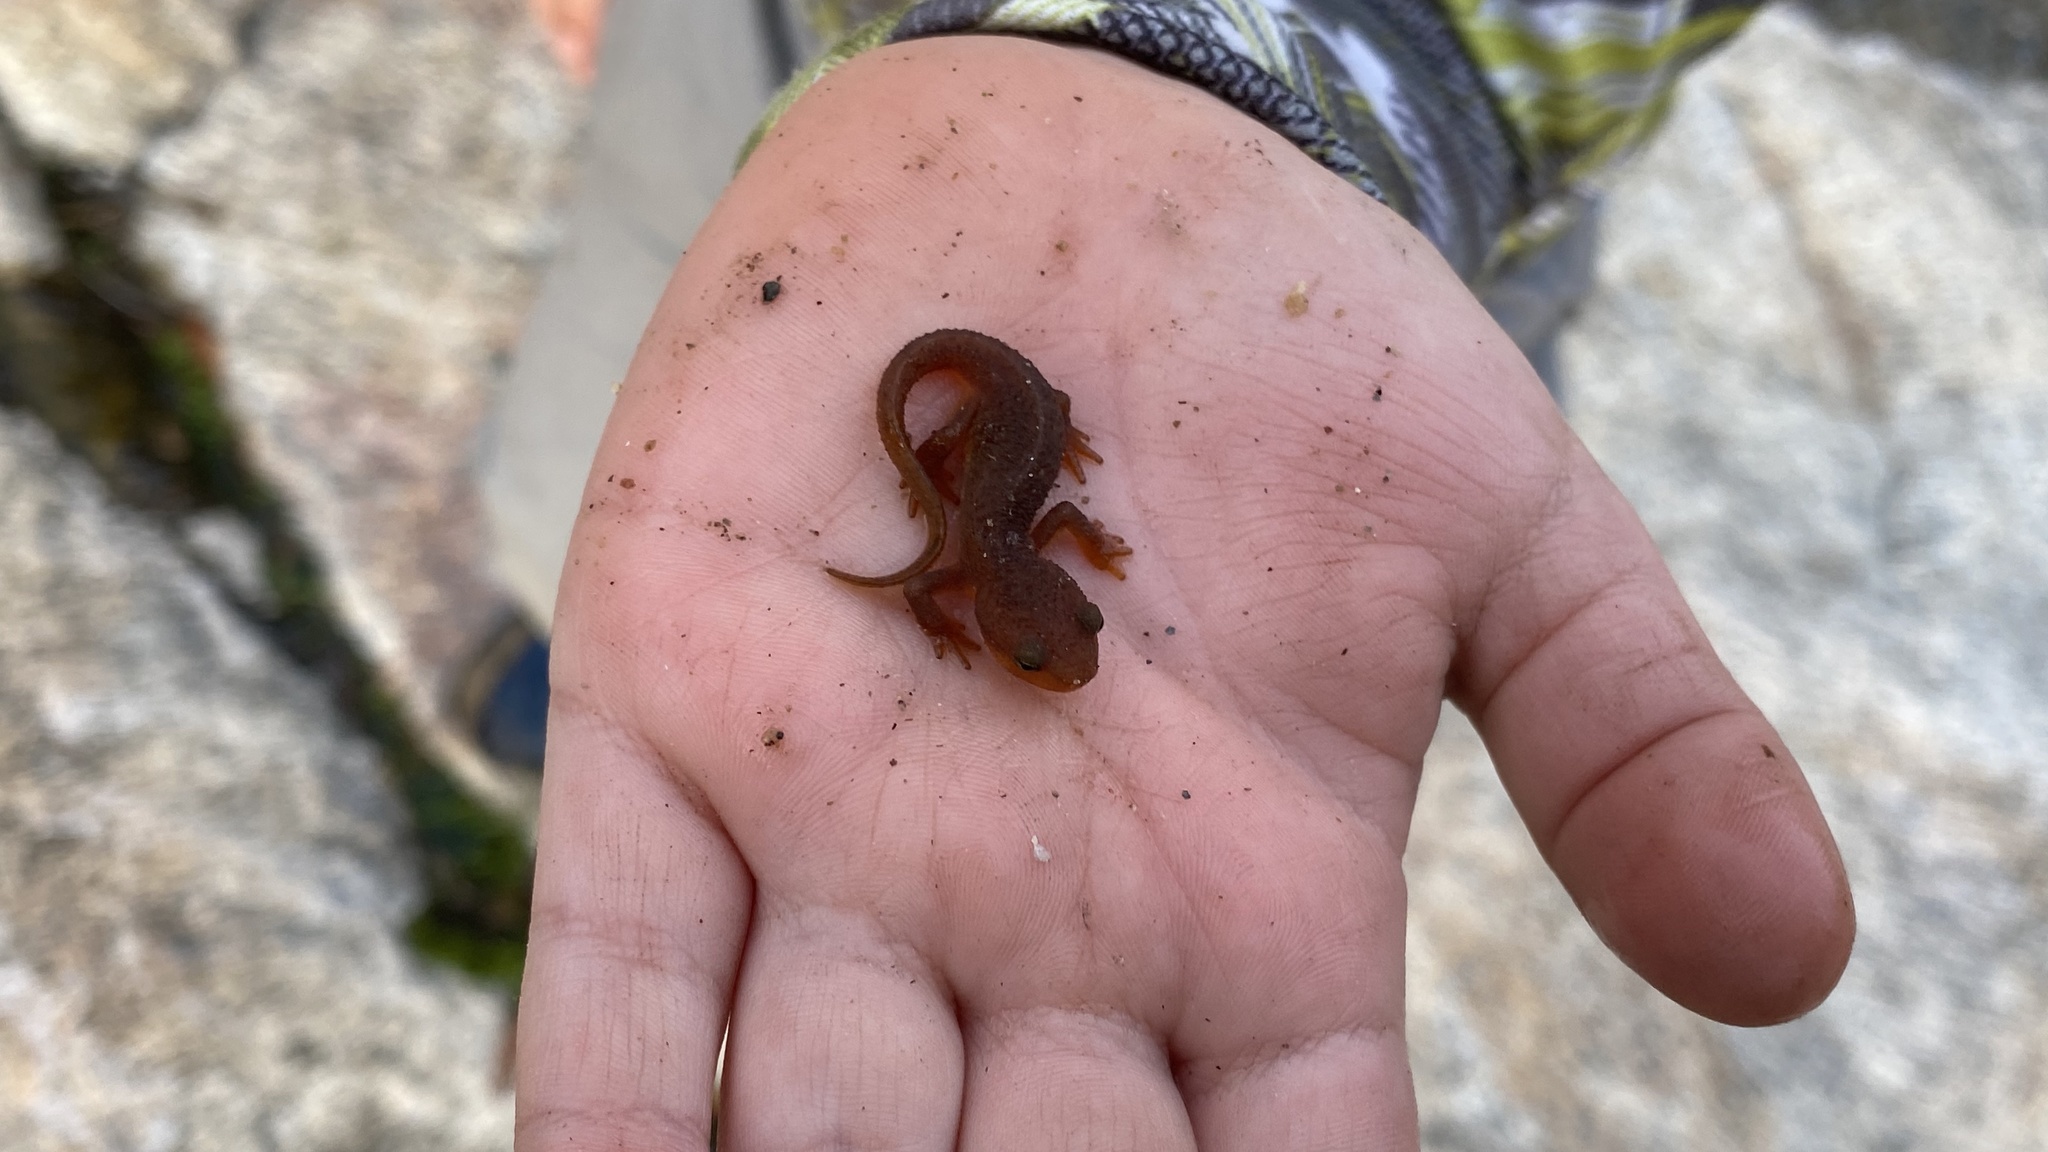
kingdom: Animalia
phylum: Chordata
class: Amphibia
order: Caudata
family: Salamandridae
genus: Taricha
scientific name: Taricha torosa
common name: California newt
